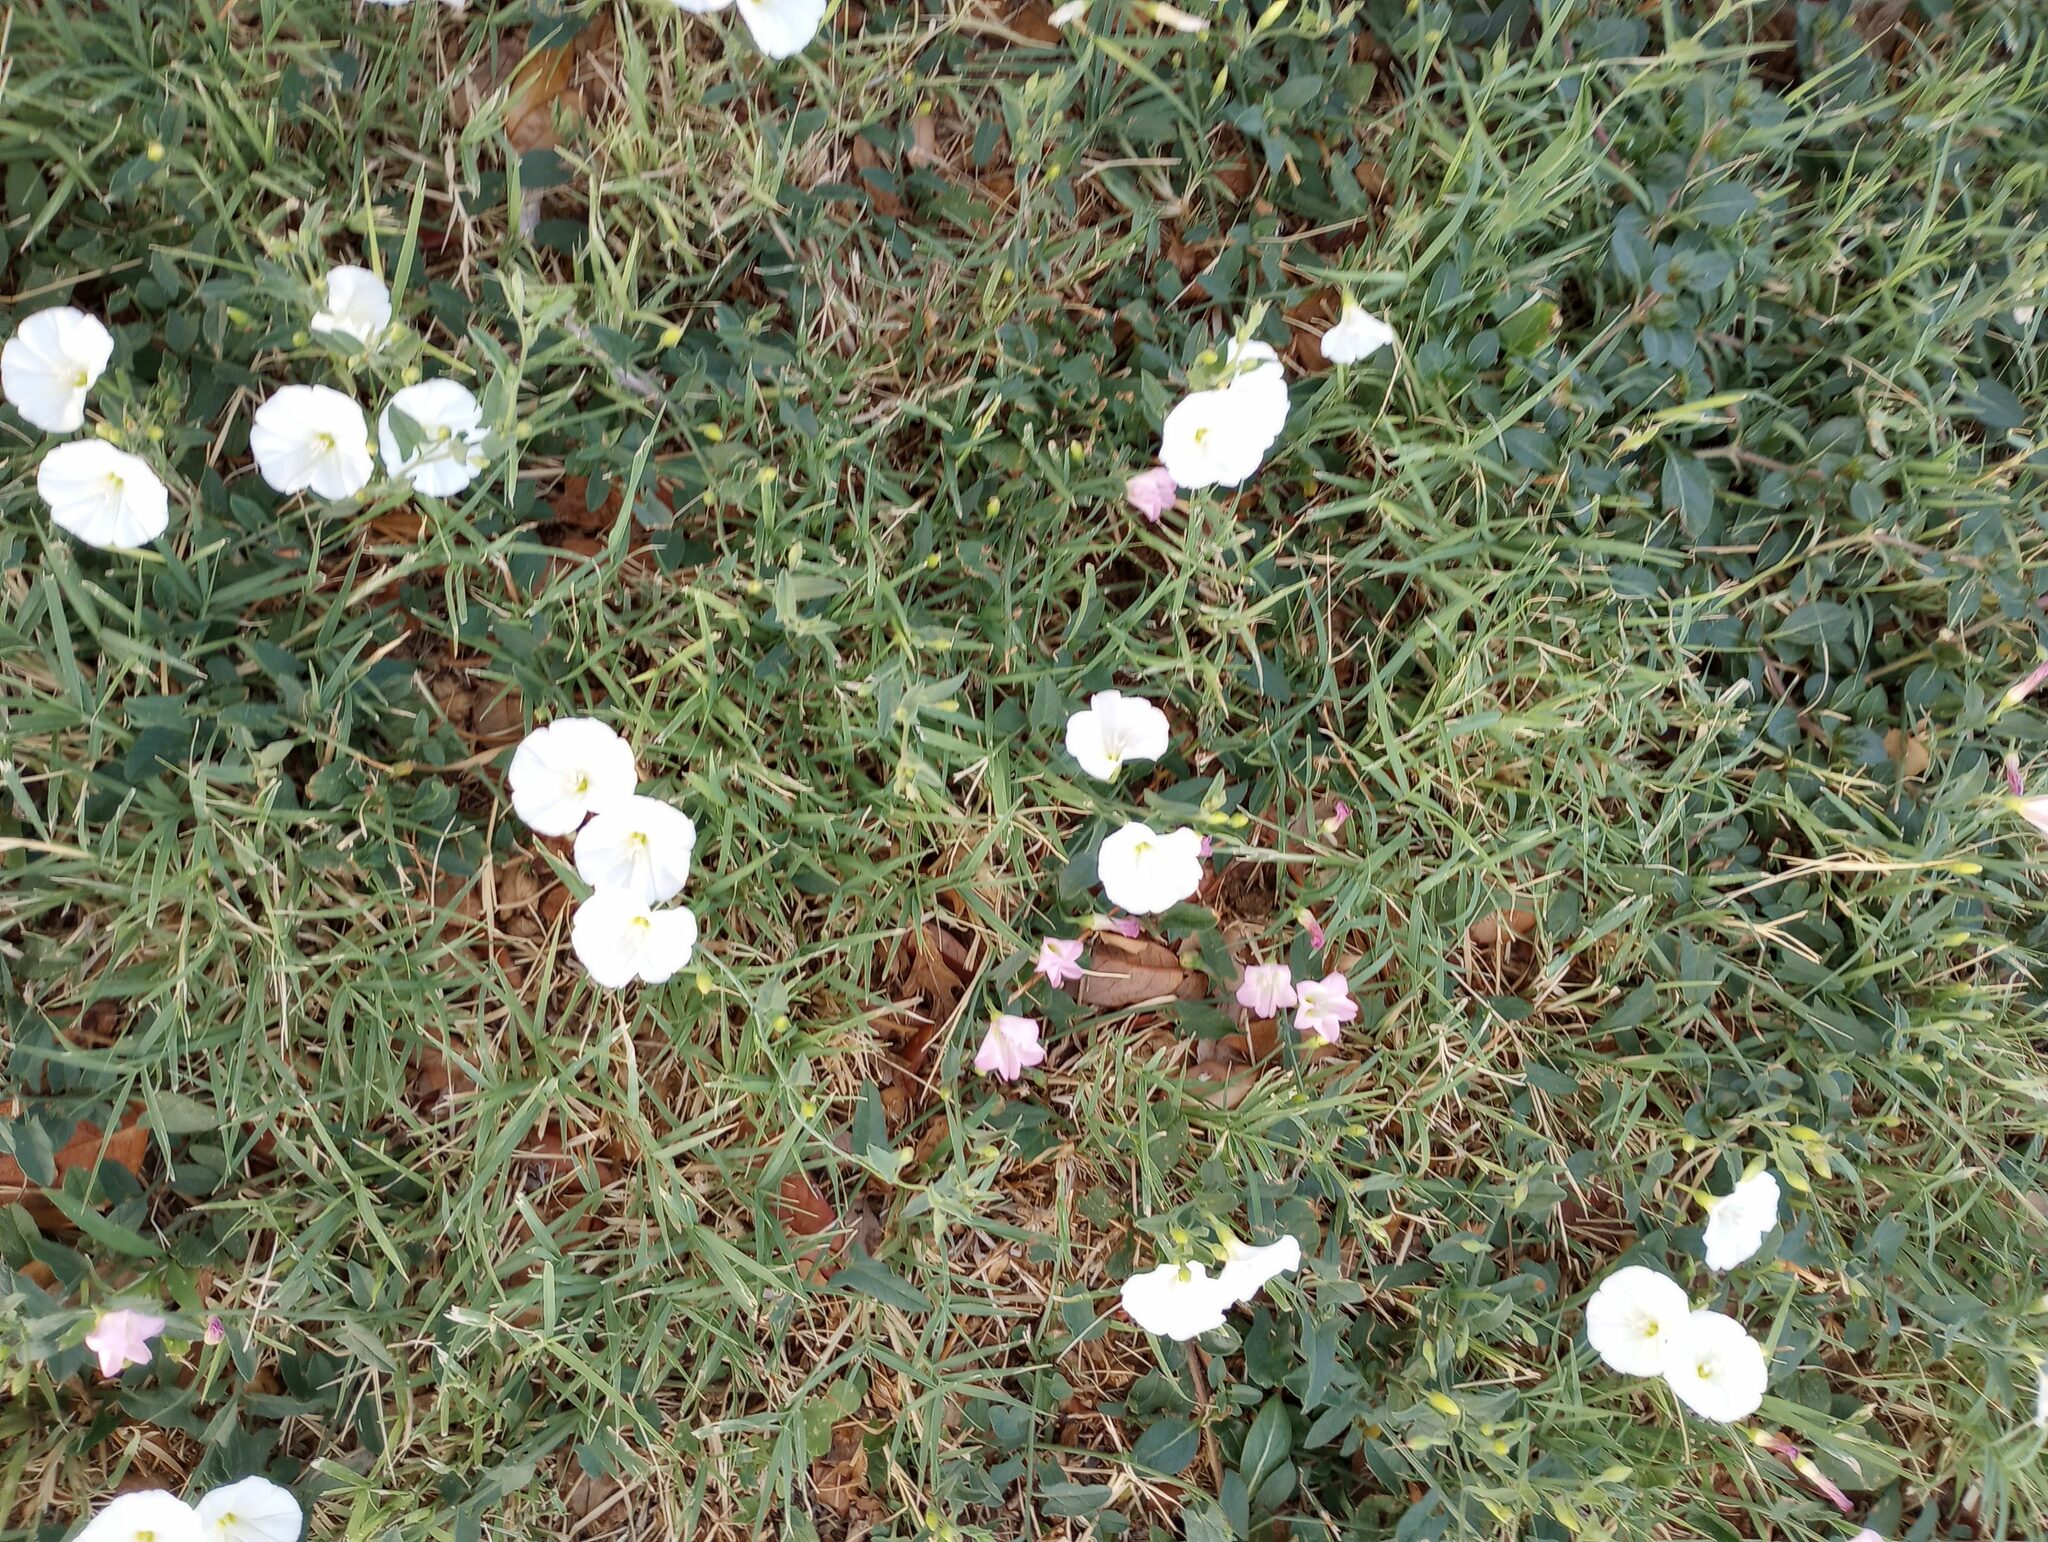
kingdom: Plantae
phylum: Tracheophyta
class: Magnoliopsida
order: Solanales
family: Convolvulaceae
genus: Convolvulus
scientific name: Convolvulus arvensis
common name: Field bindweed
